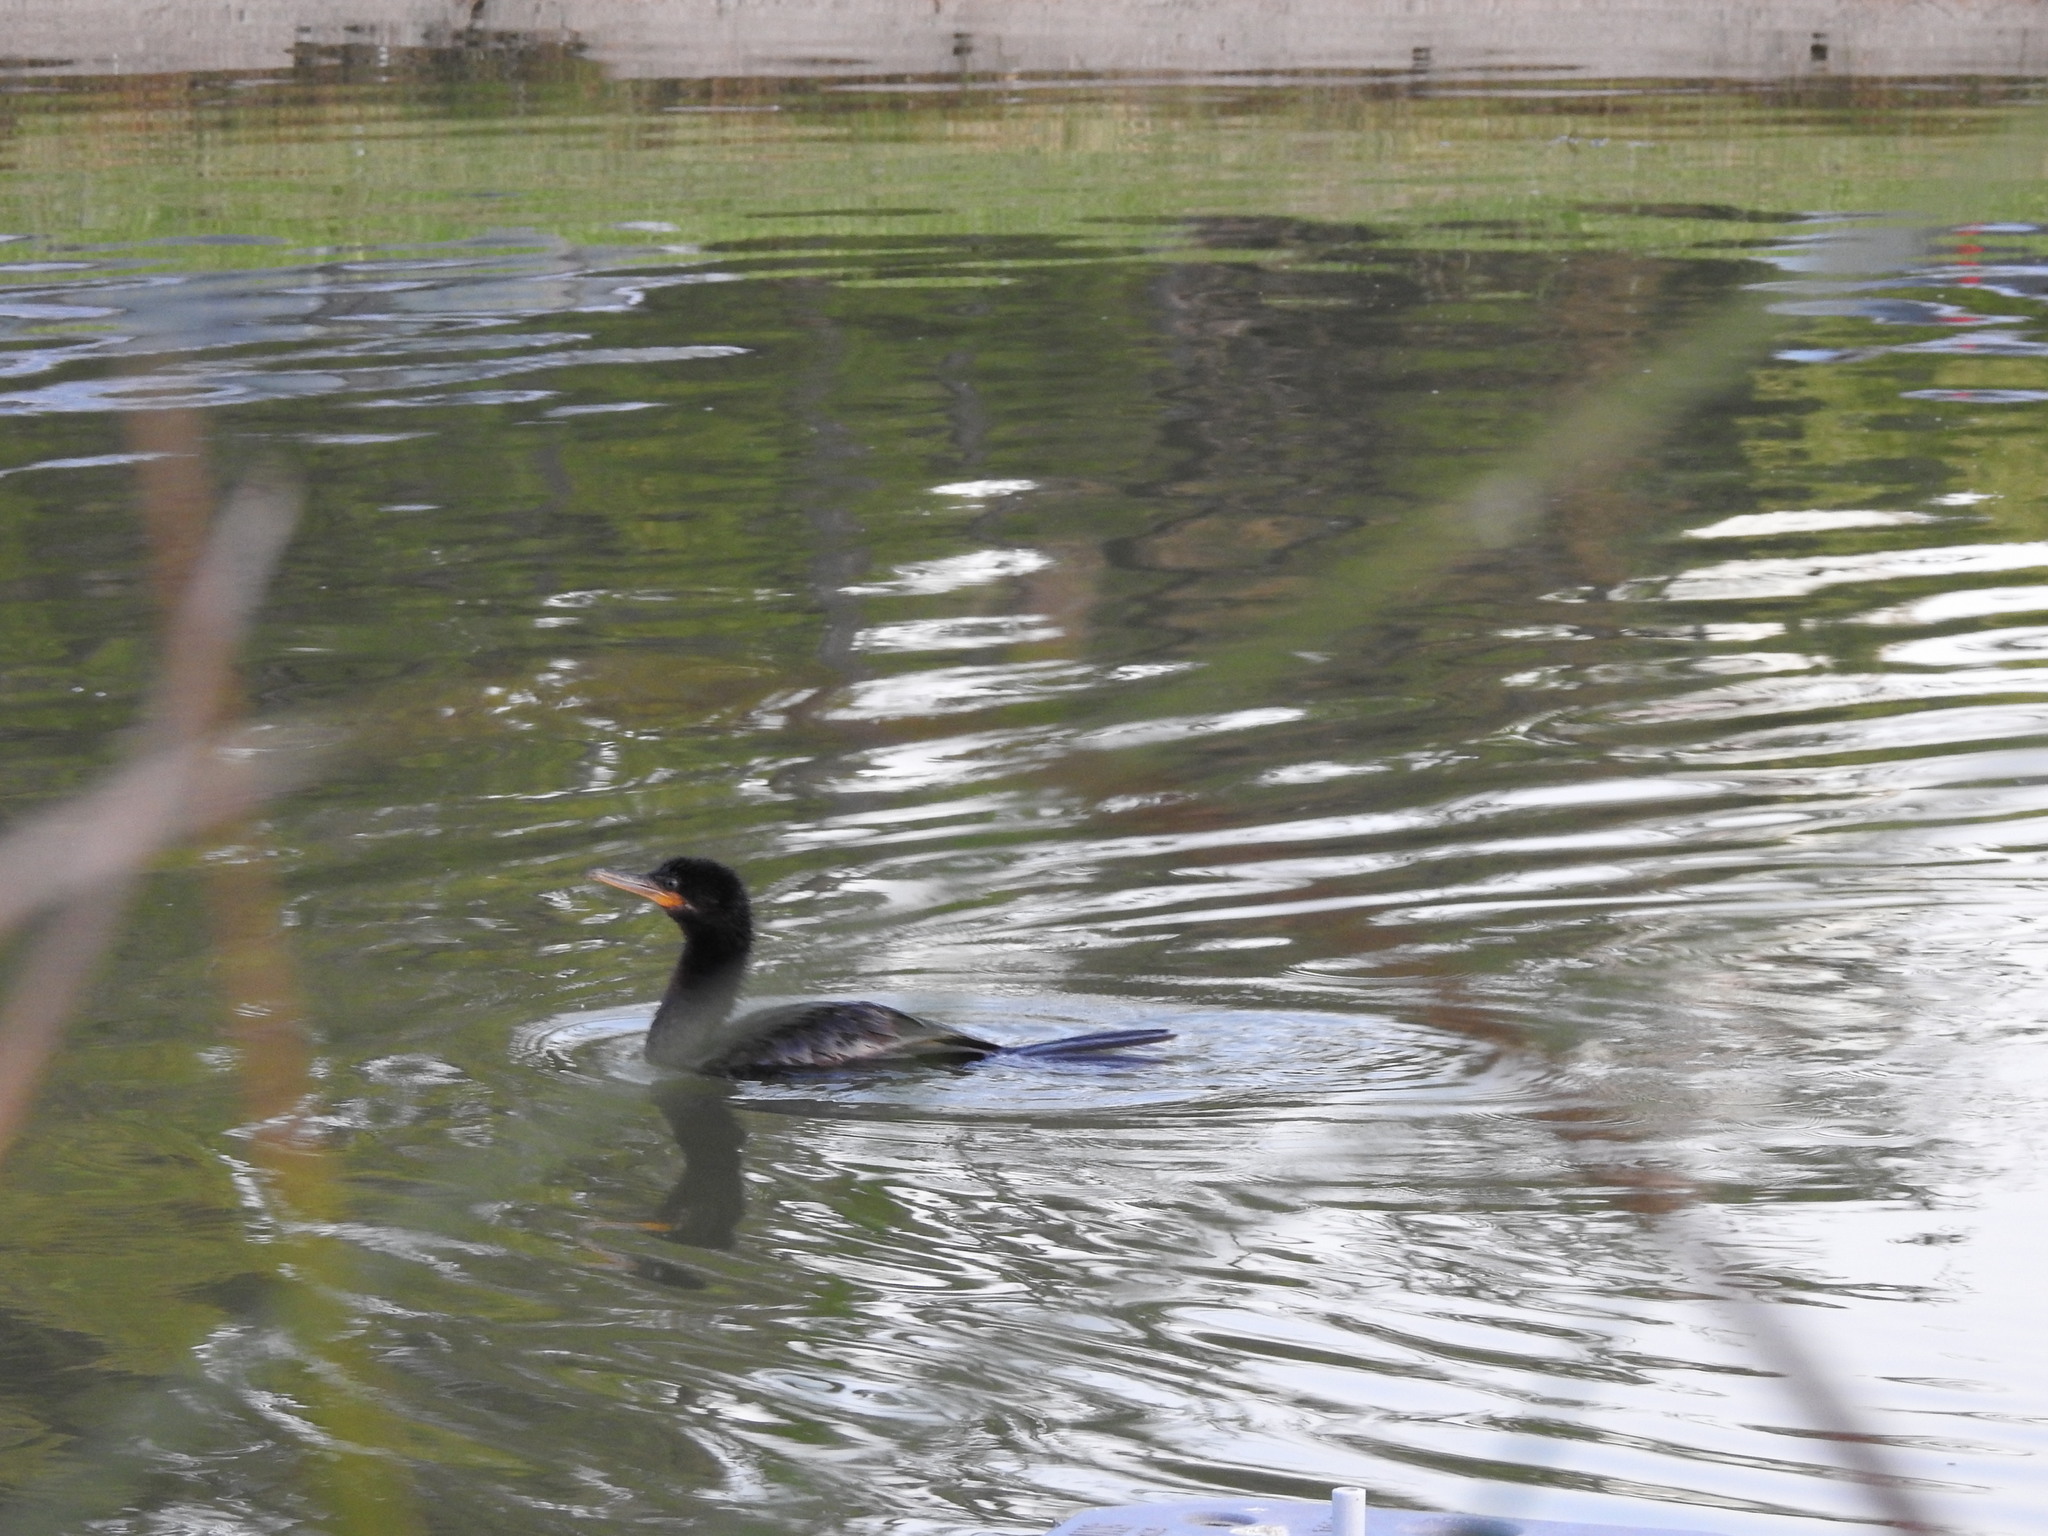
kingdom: Animalia
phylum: Chordata
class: Aves
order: Suliformes
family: Phalacrocoracidae
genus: Phalacrocorax
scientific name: Phalacrocorax brasilianus
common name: Neotropic cormorant
